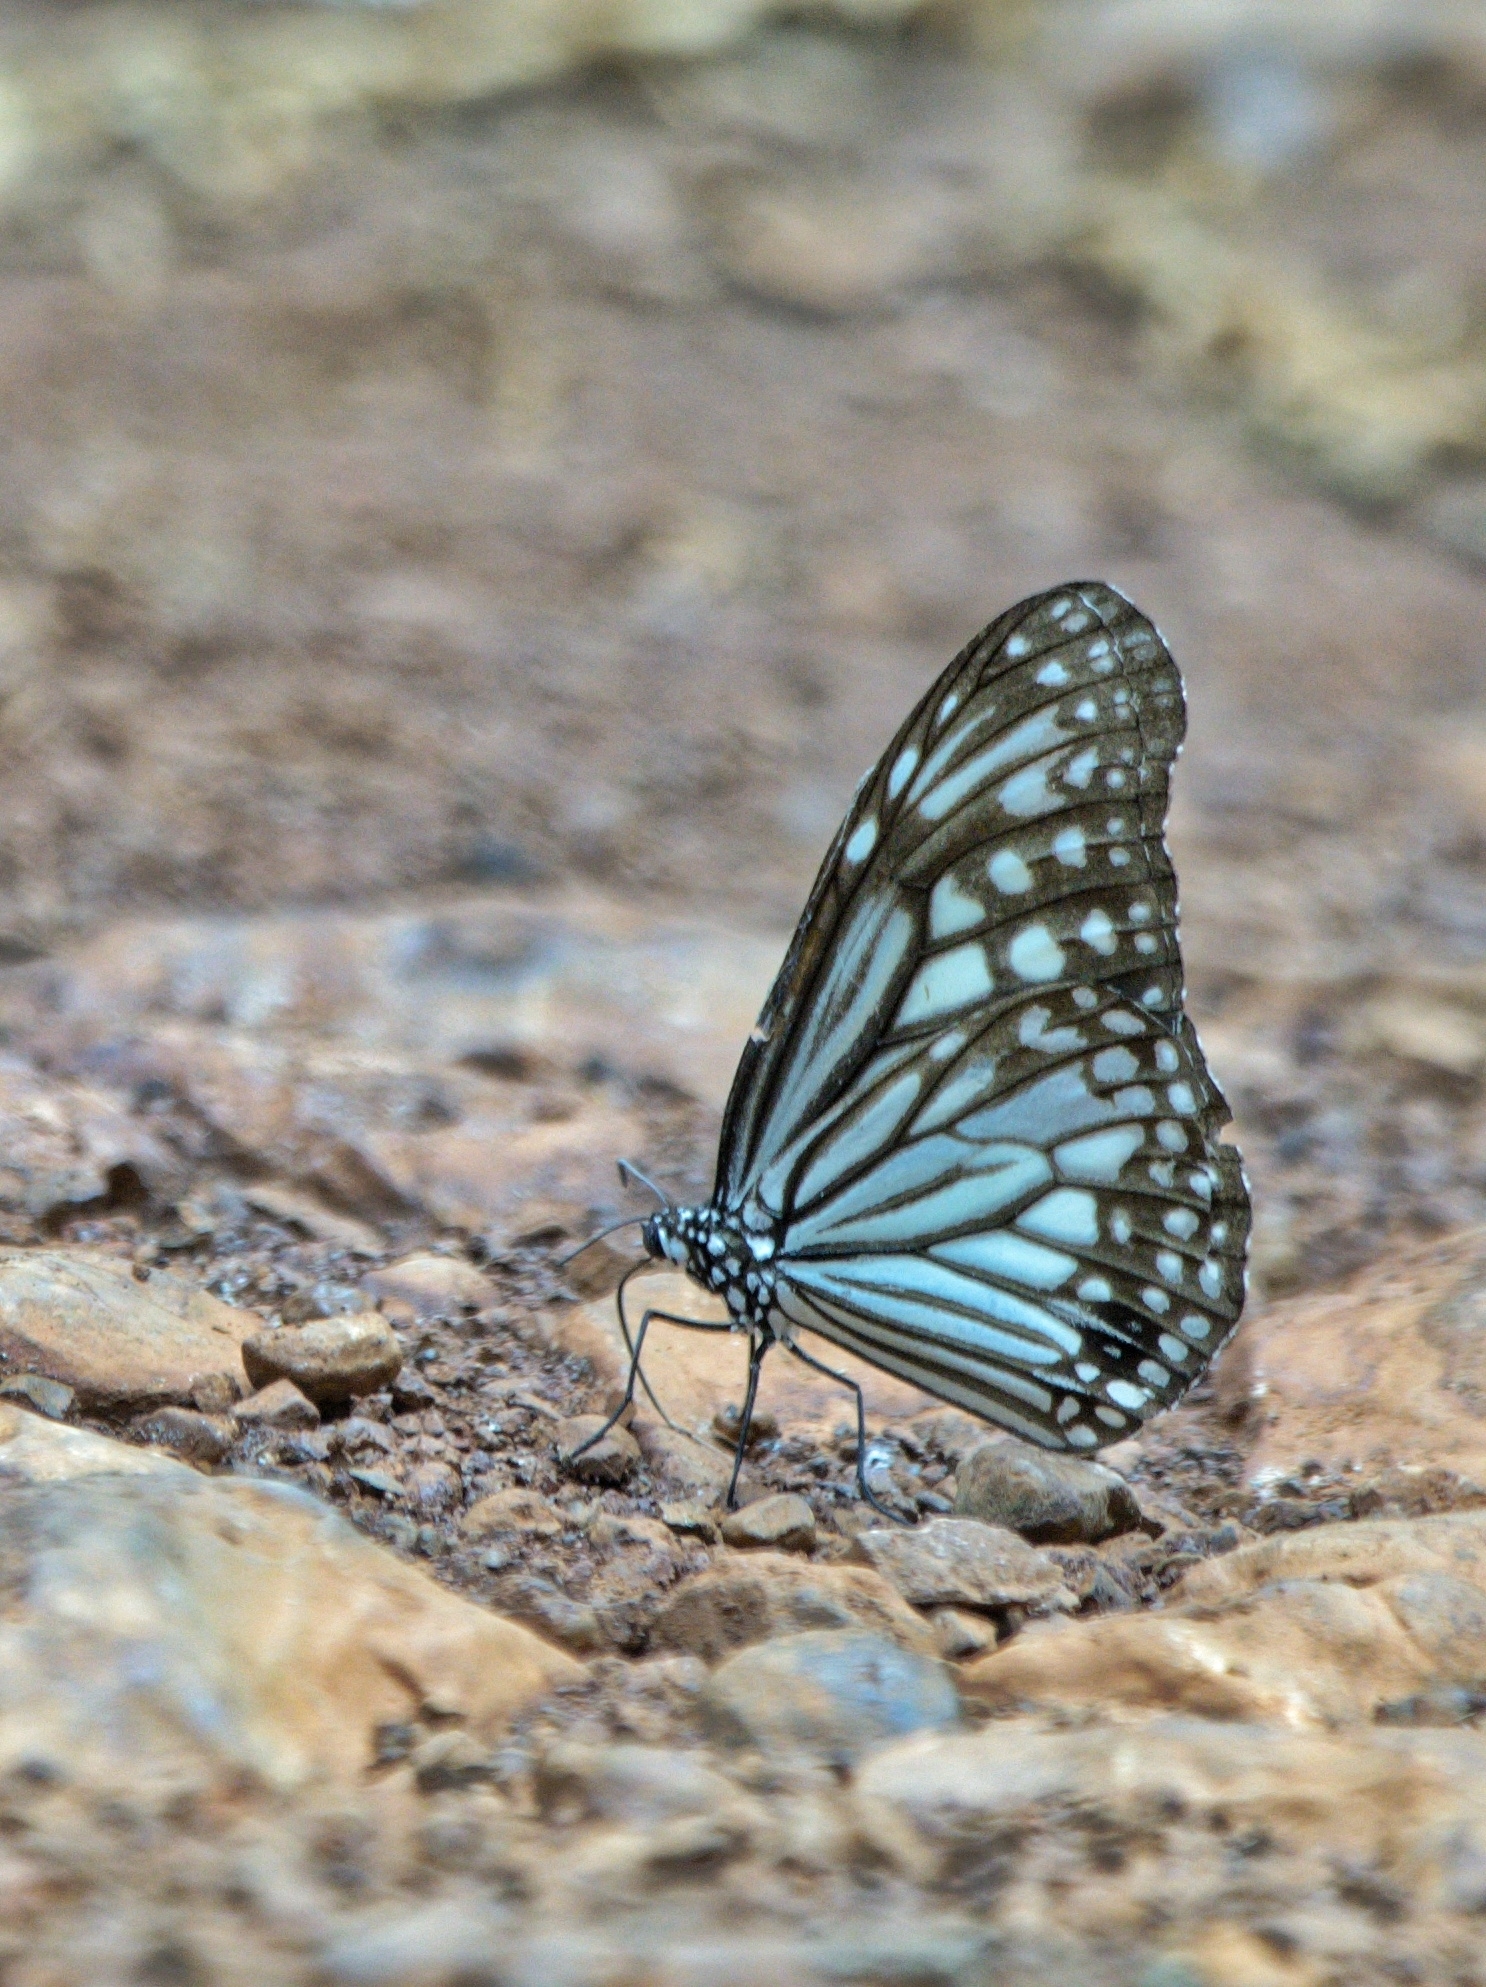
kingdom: Animalia
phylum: Arthropoda
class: Insecta
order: Lepidoptera
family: Nymphalidae
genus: Parantica
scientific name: Parantica aglea
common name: Glassy tiger
